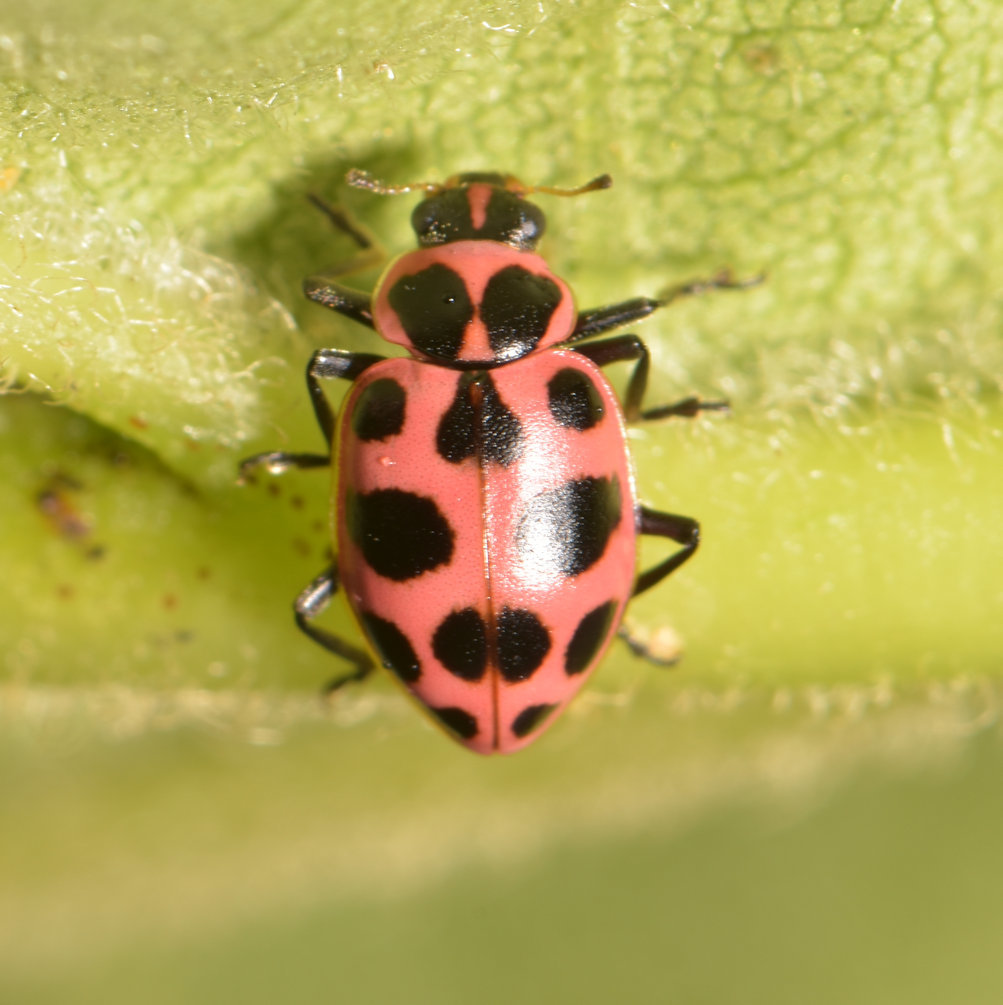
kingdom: Animalia
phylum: Arthropoda
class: Insecta
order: Coleoptera
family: Coccinellidae
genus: Coleomegilla
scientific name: Coleomegilla maculata
